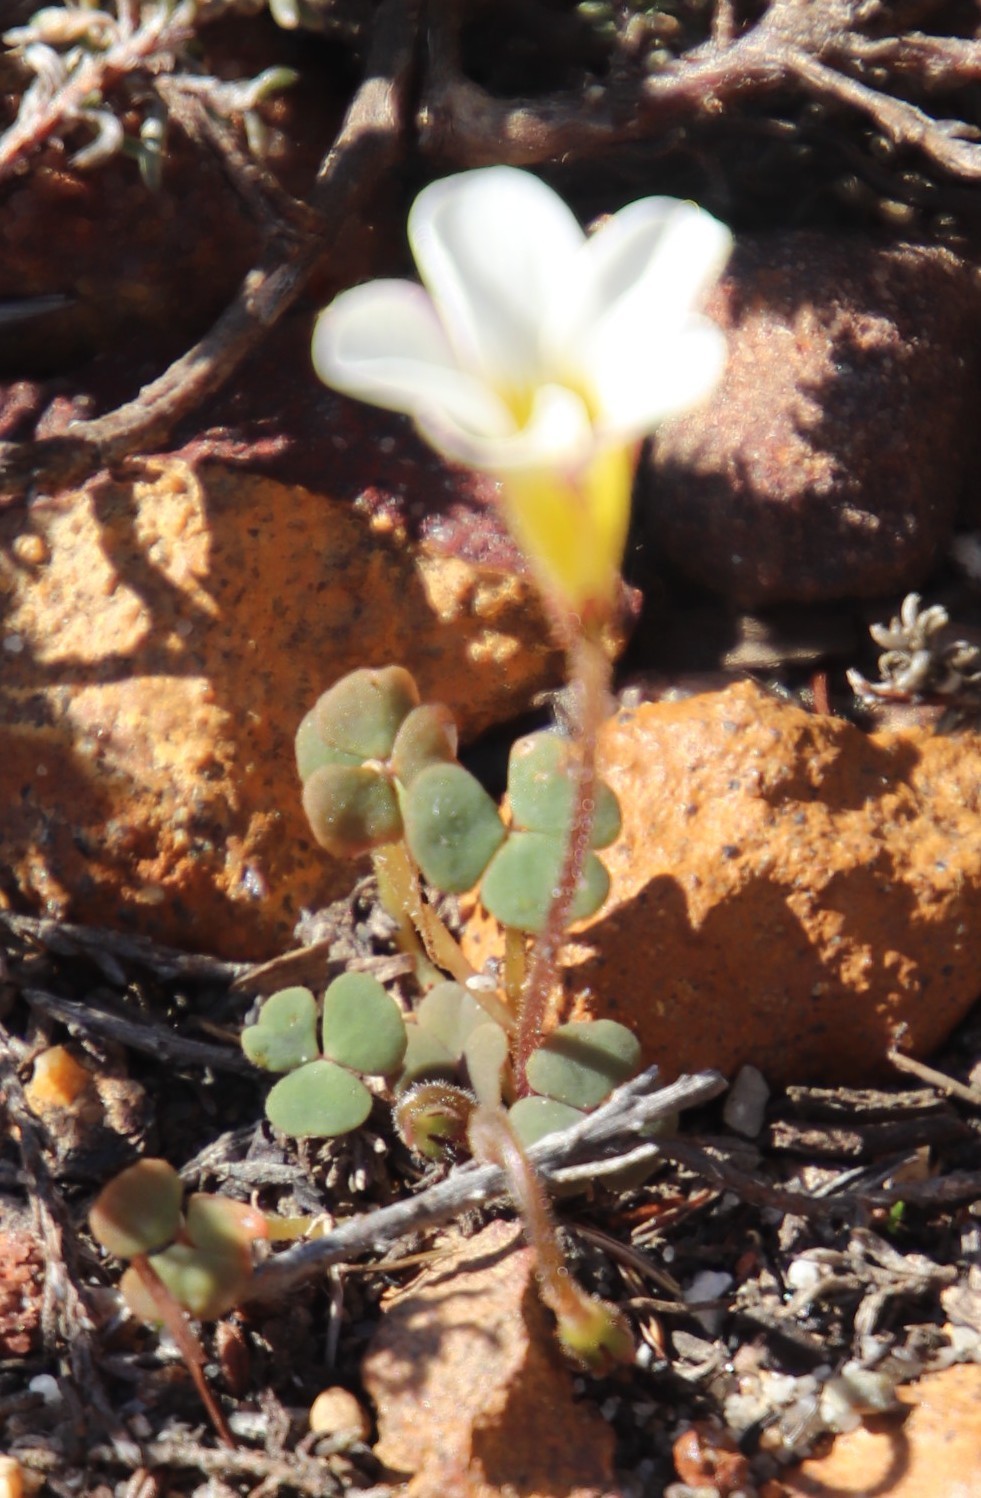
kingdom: Plantae
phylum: Tracheophyta
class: Magnoliopsida
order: Oxalidales
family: Oxalidaceae
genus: Oxalis
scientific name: Oxalis punctata
